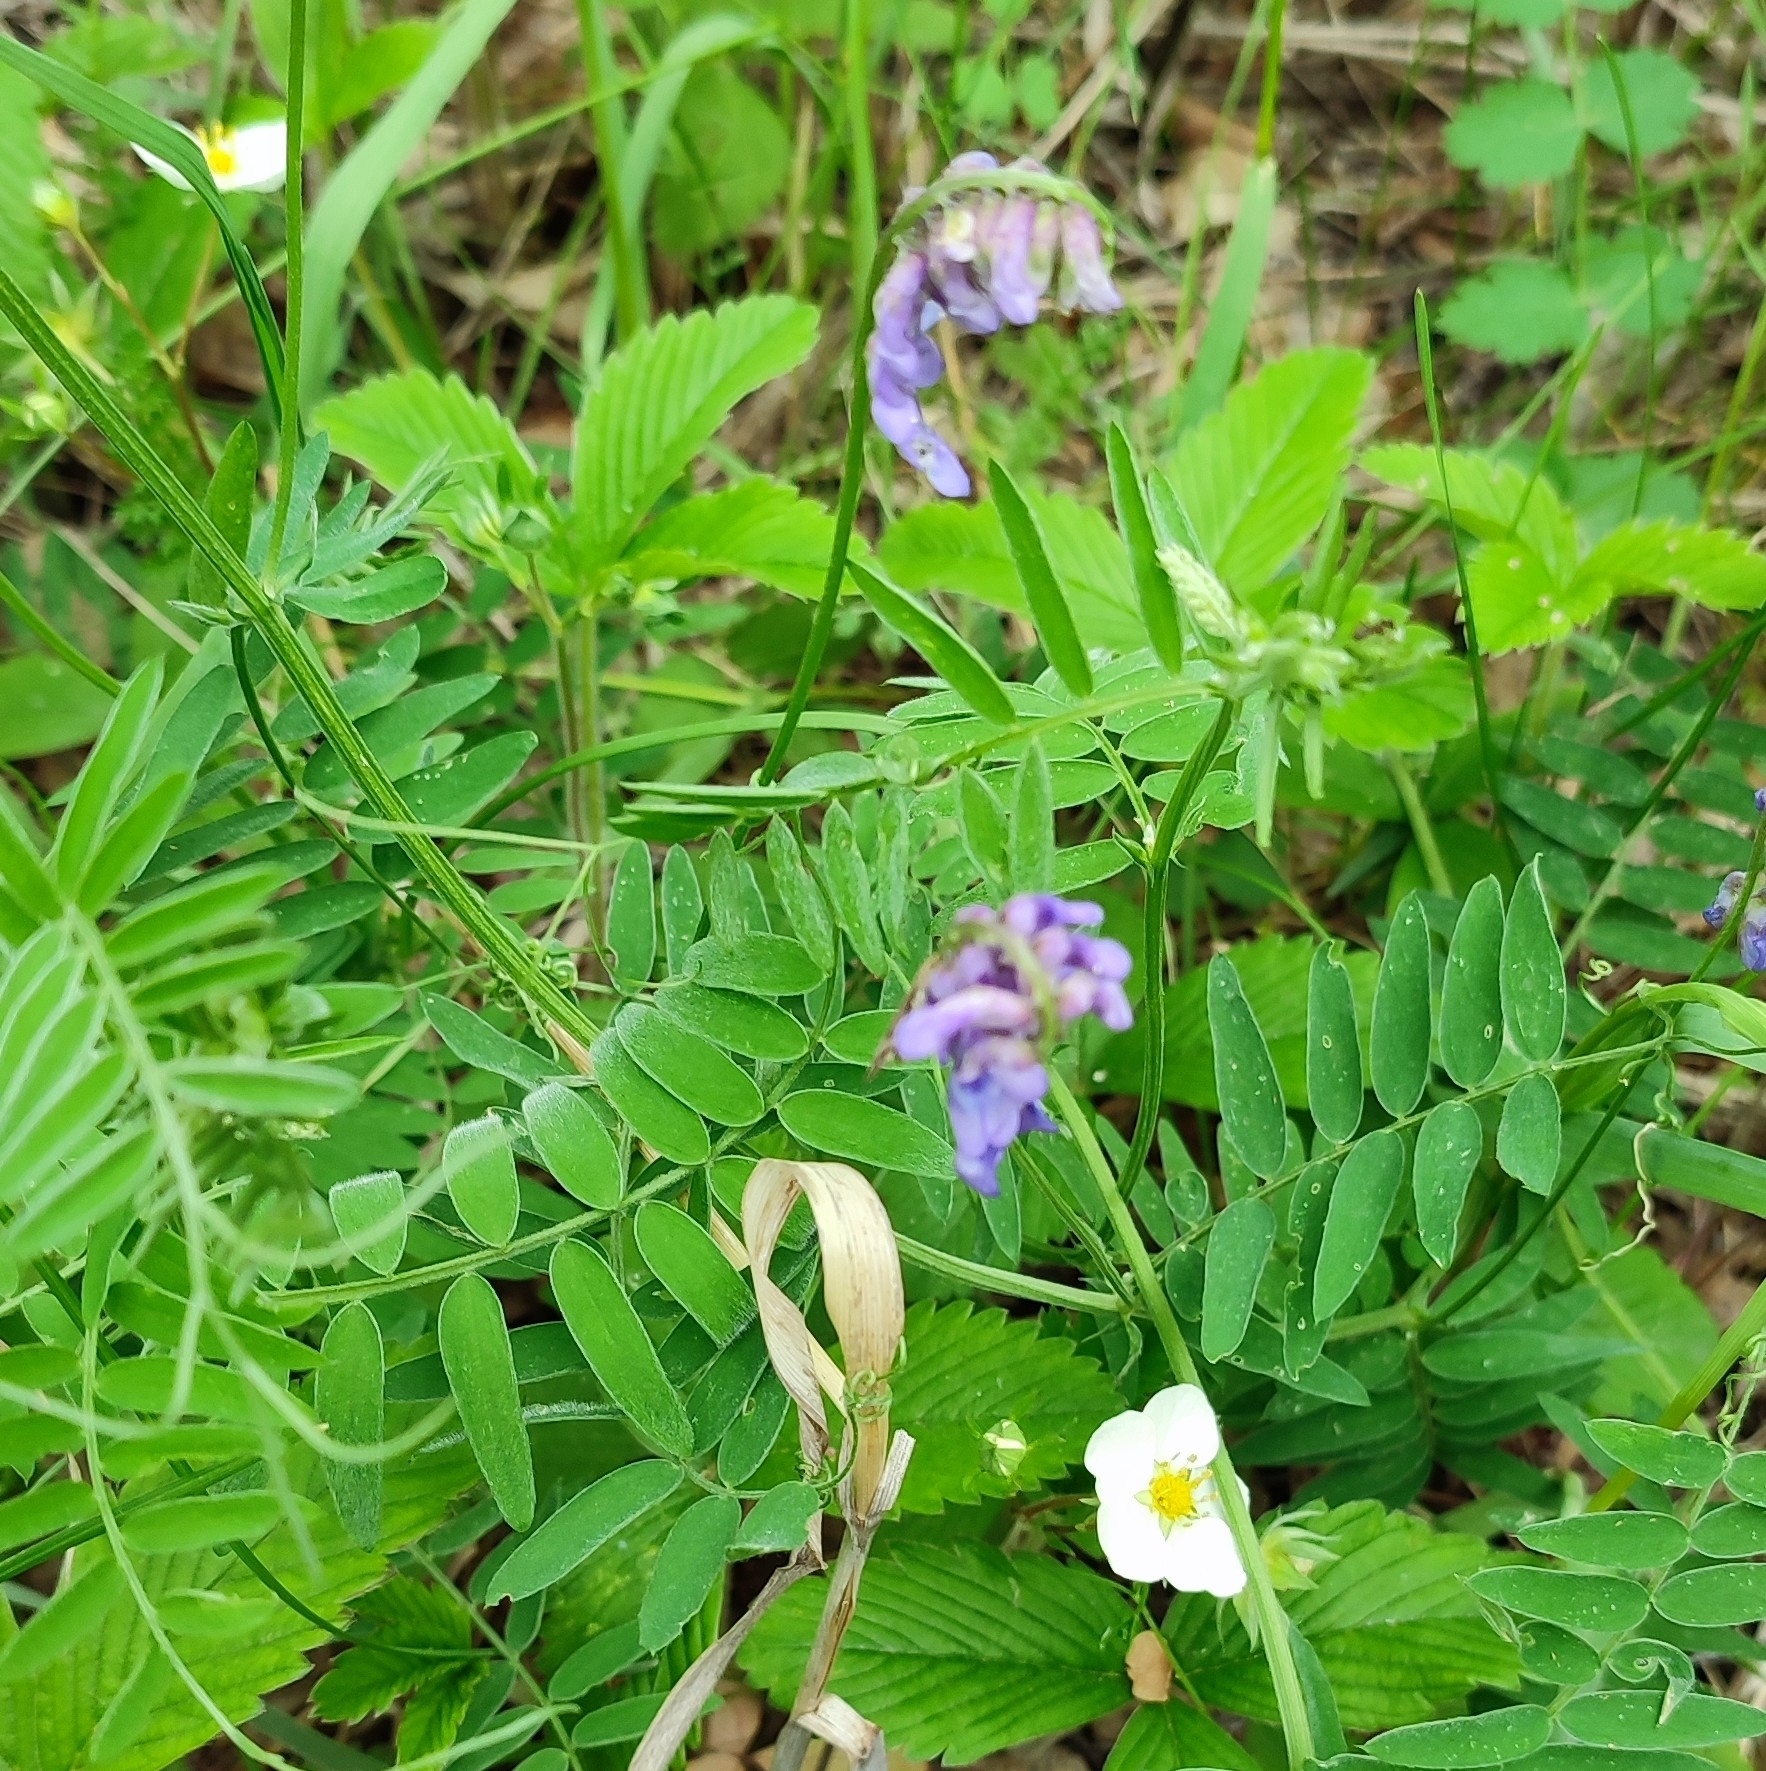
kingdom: Plantae
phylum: Tracheophyta
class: Magnoliopsida
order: Fabales
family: Fabaceae
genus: Vicia
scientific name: Vicia cracca
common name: Bird vetch
